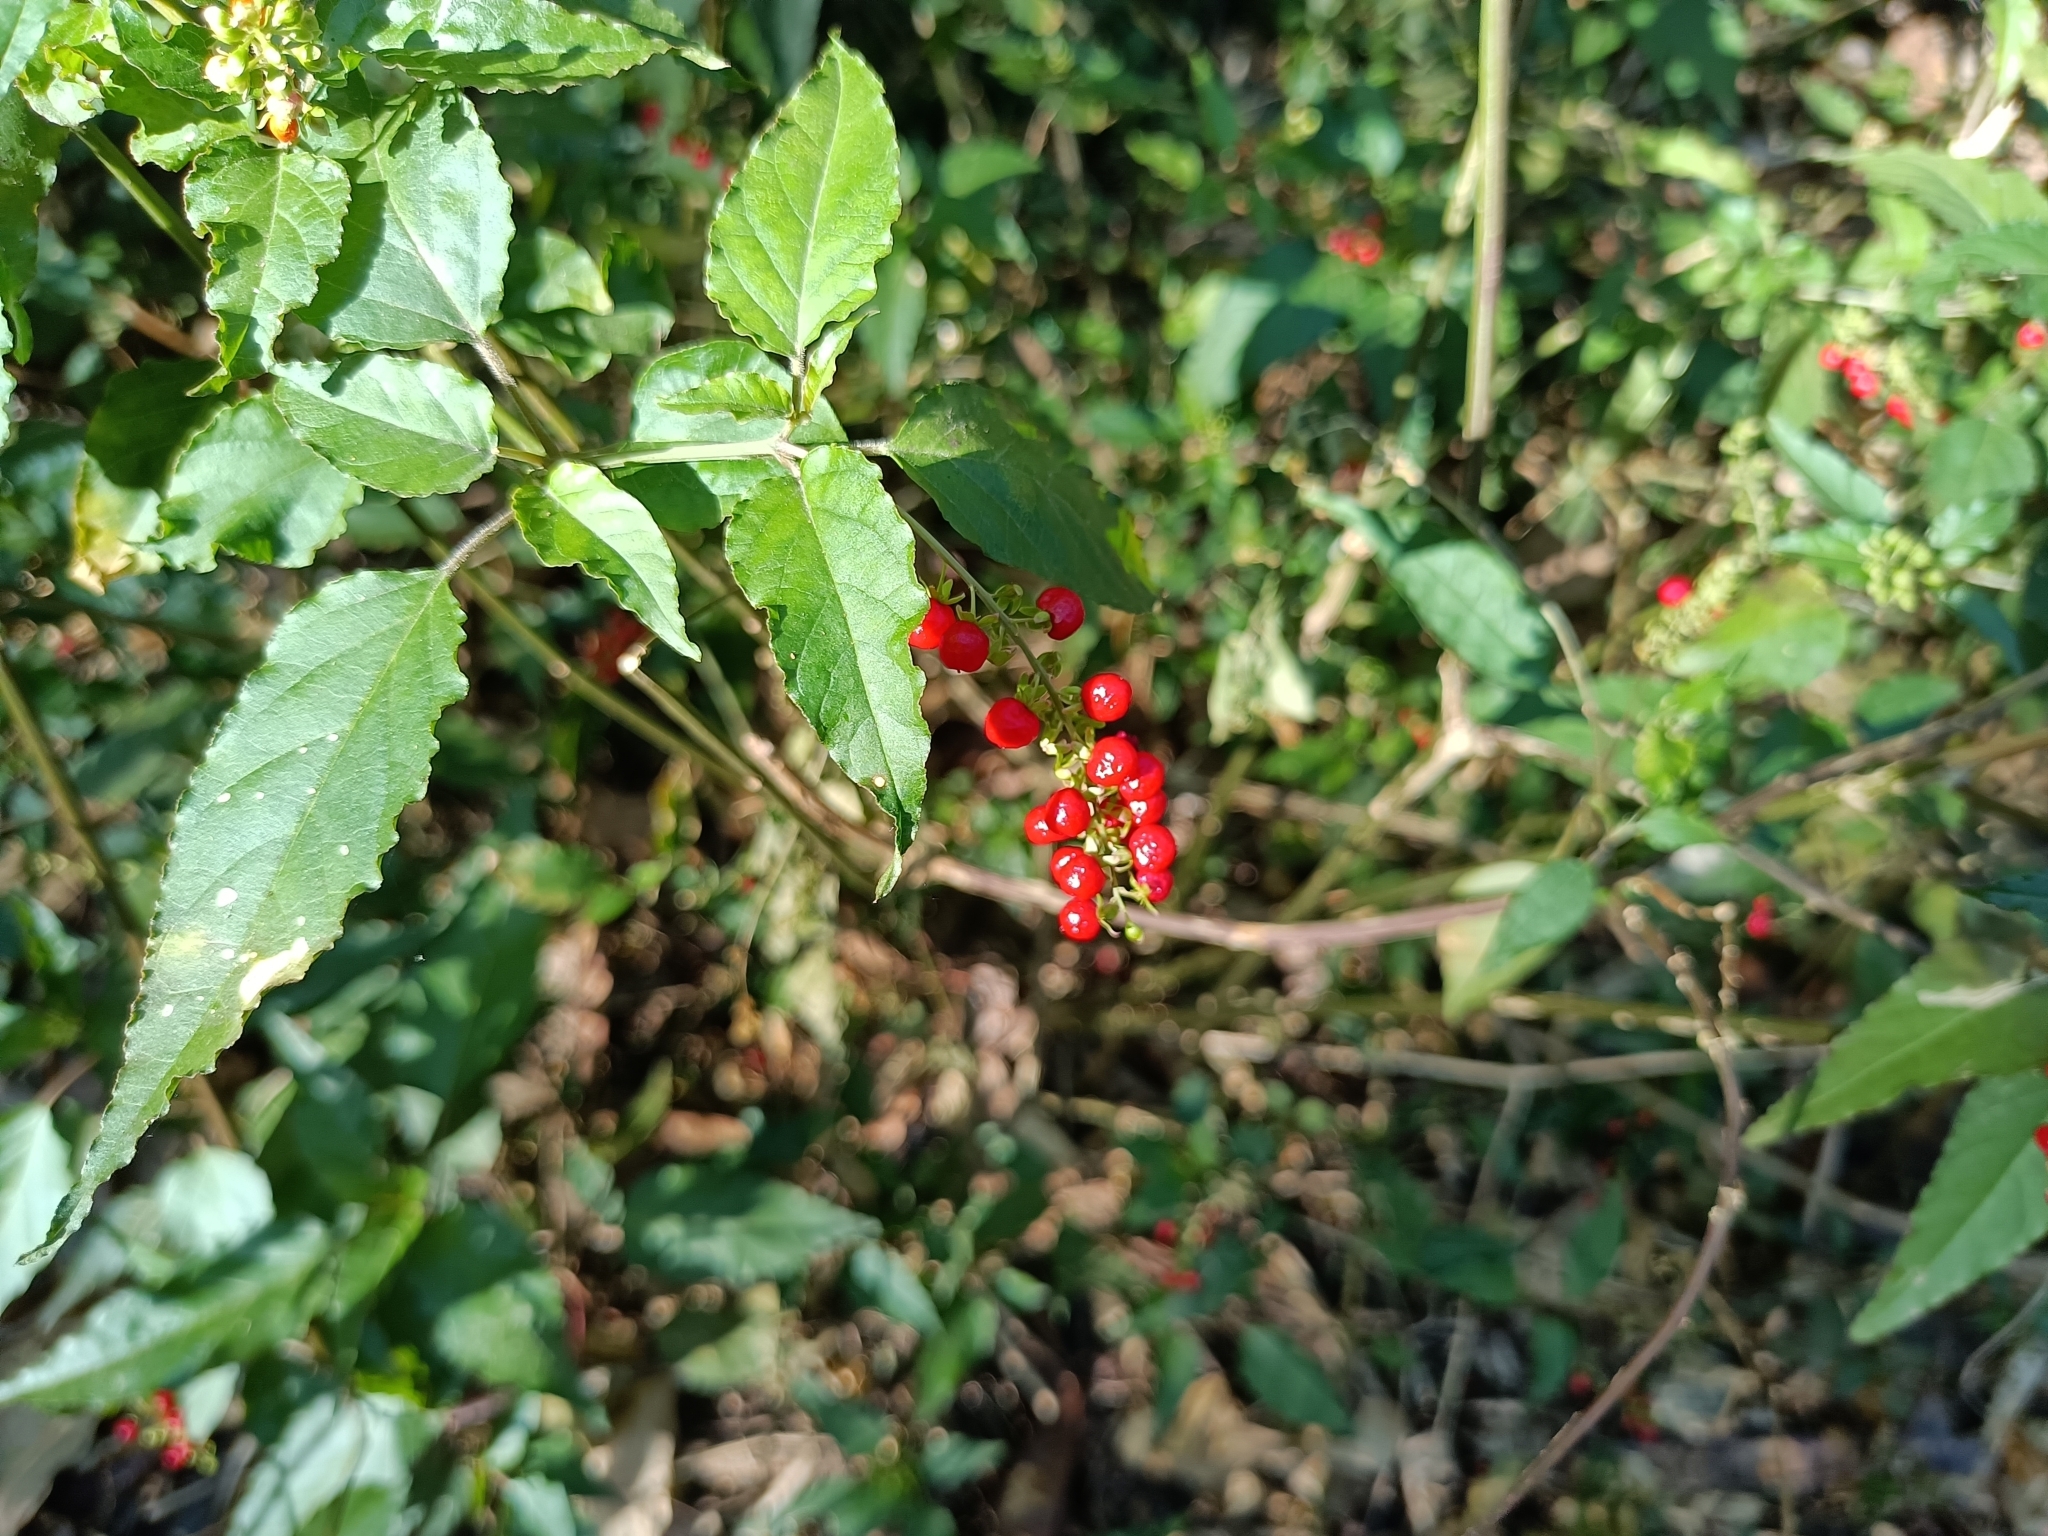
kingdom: Plantae
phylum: Tracheophyta
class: Magnoliopsida
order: Caryophyllales
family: Phytolaccaceae
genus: Rivina
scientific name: Rivina humilis
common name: Rougeplant
